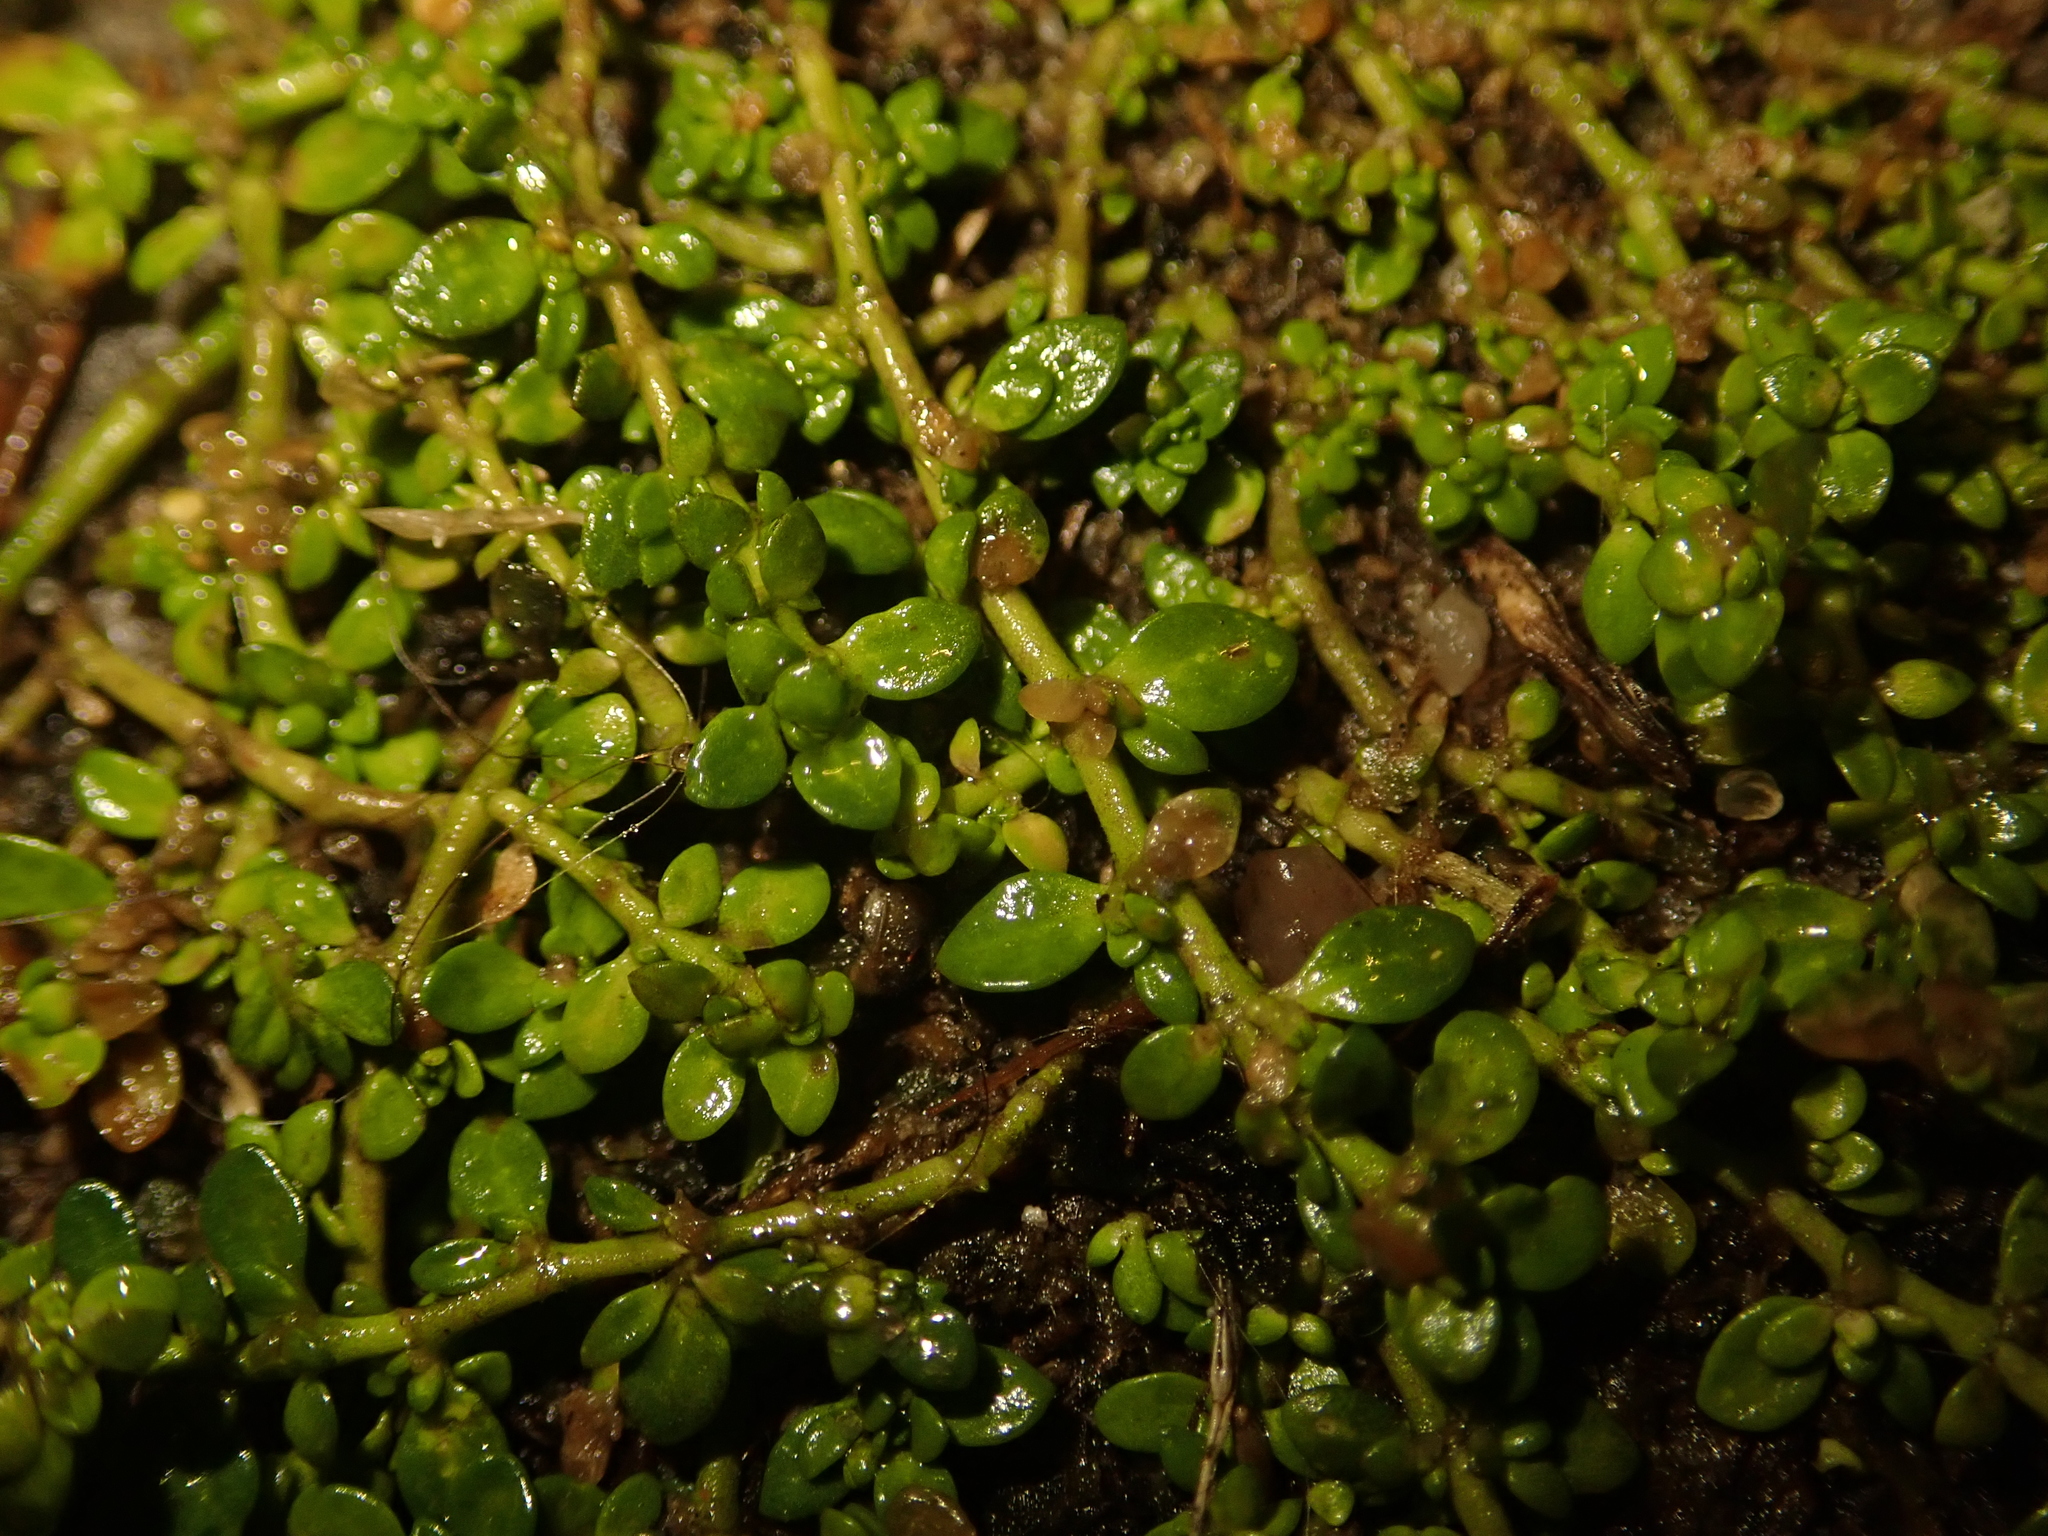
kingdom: Plantae
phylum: Tracheophyta
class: Magnoliopsida
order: Caryophyllales
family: Caryophyllaceae
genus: Herniaria
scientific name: Herniaria glabra
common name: Smooth rupturewort
